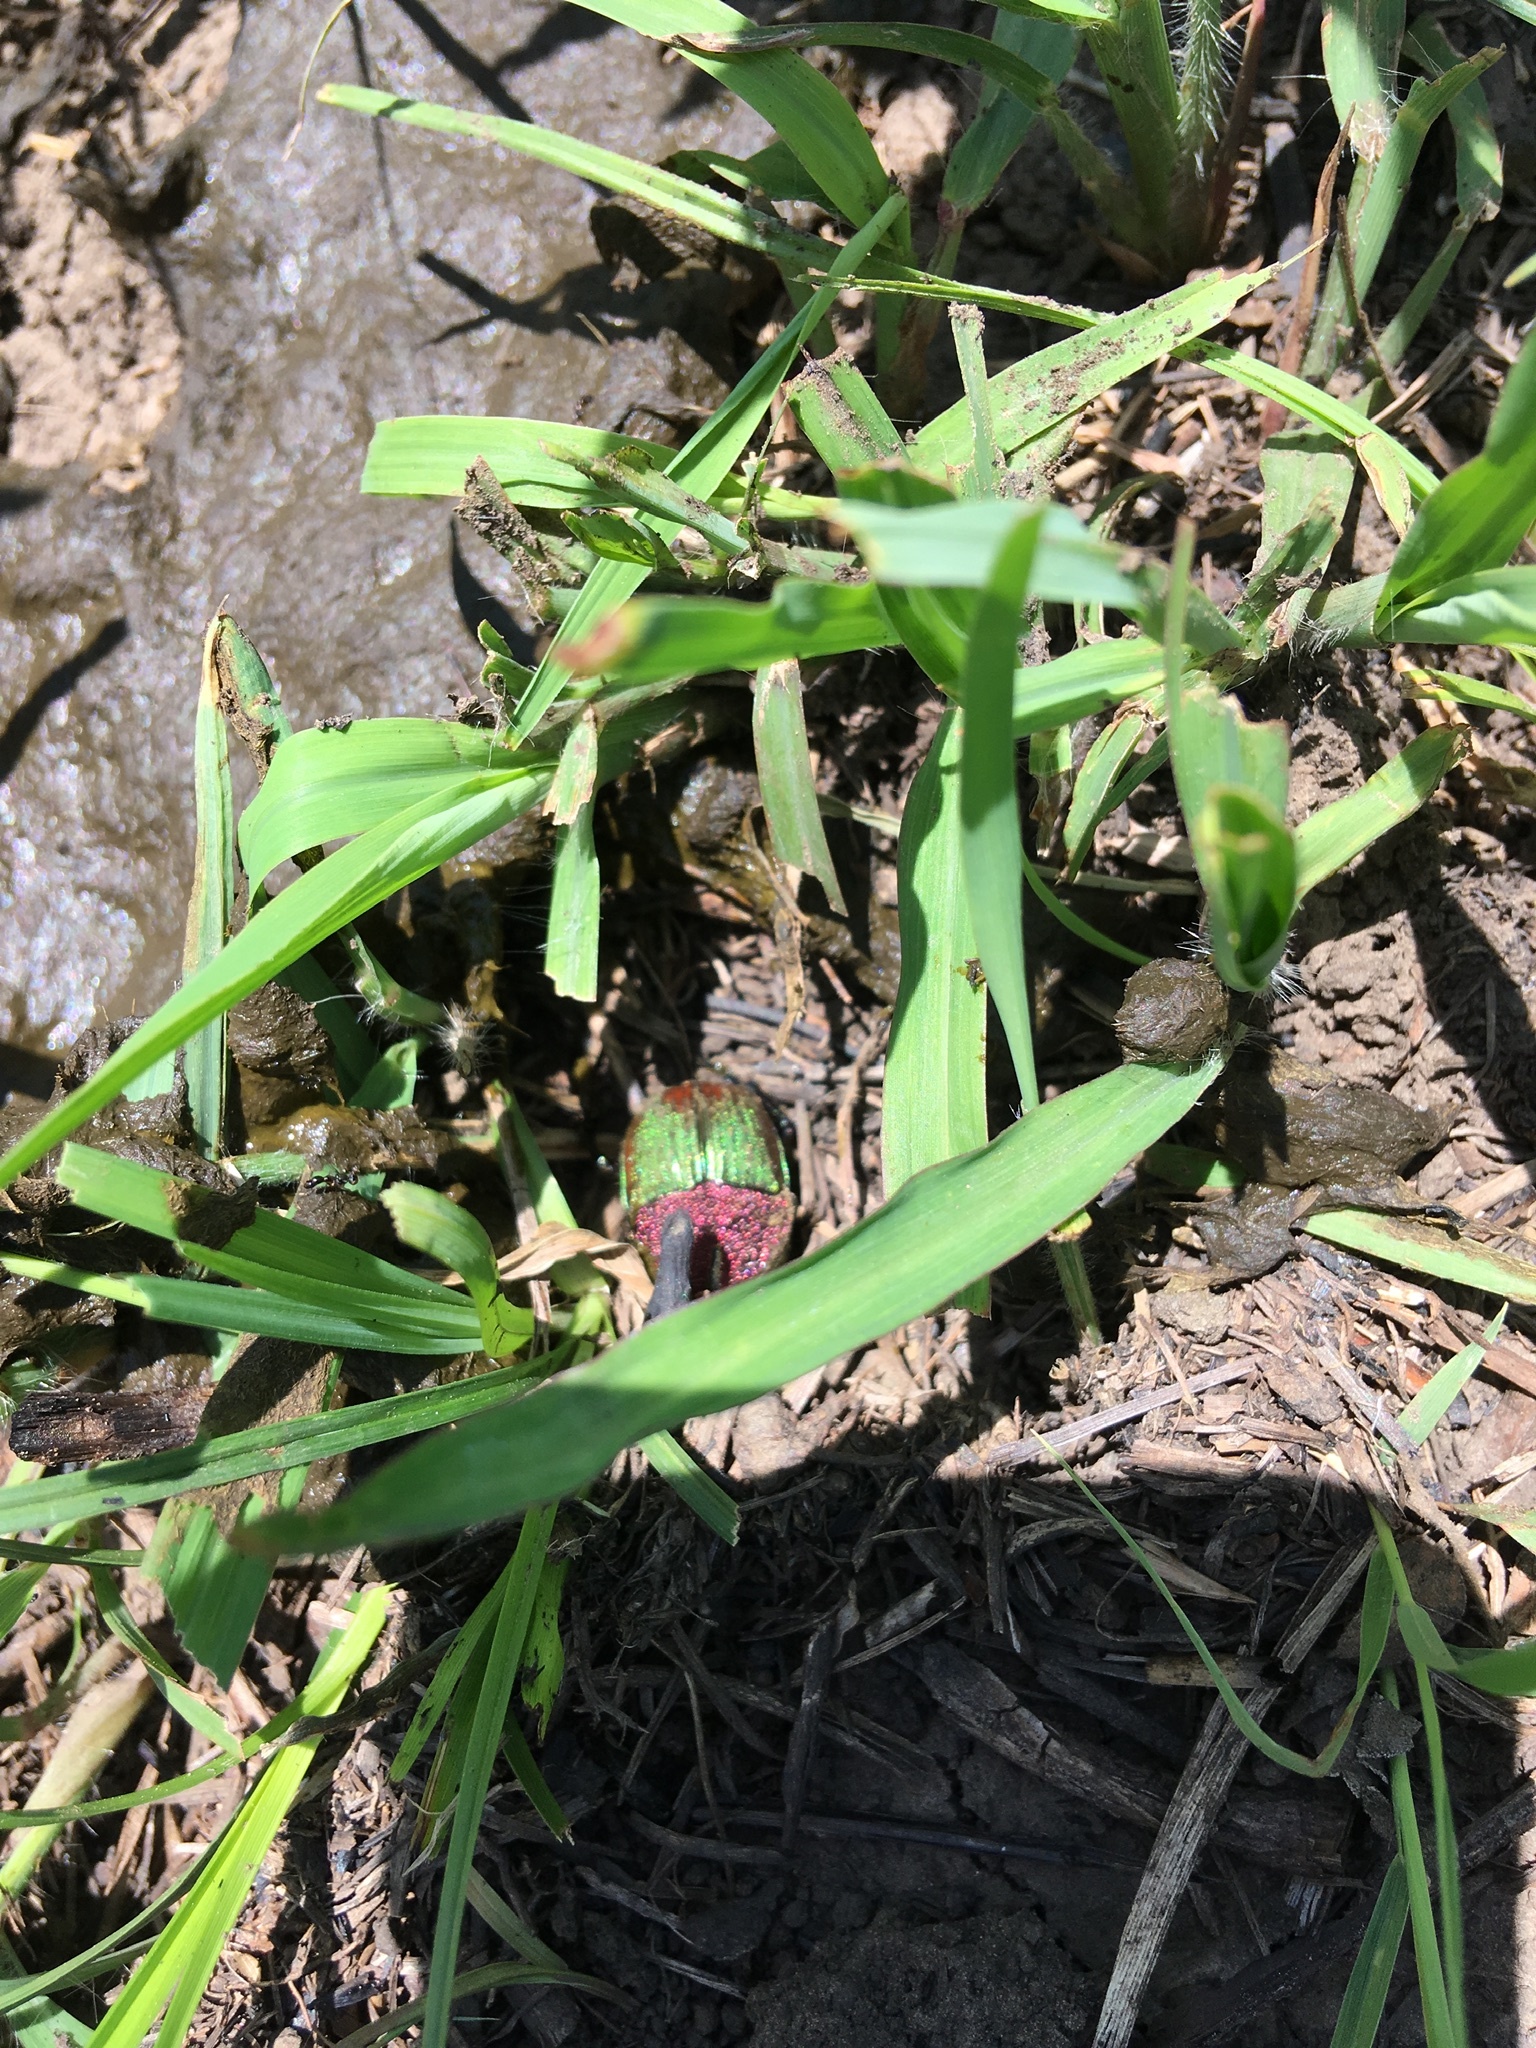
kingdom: Animalia
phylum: Arthropoda
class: Insecta
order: Coleoptera
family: Scarabaeidae
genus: Phanaeus
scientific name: Phanaeus vindex
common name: Rainbow scarab
